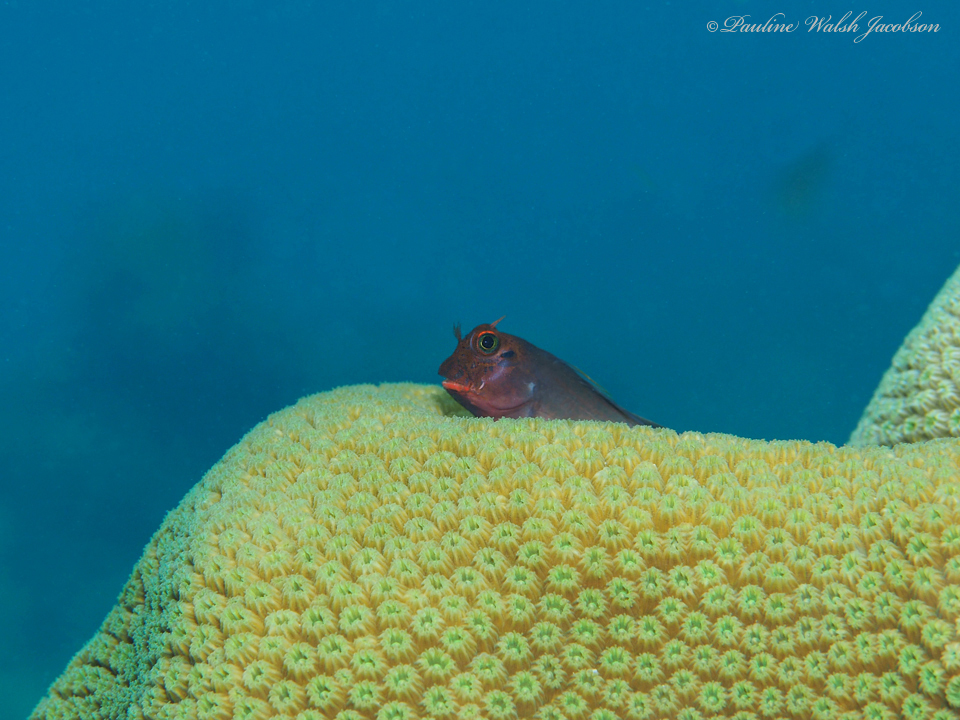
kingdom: Animalia
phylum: Chordata
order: Perciformes
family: Blenniidae
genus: Ophioblennius
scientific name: Ophioblennius macclurei
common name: Redlip blenny
